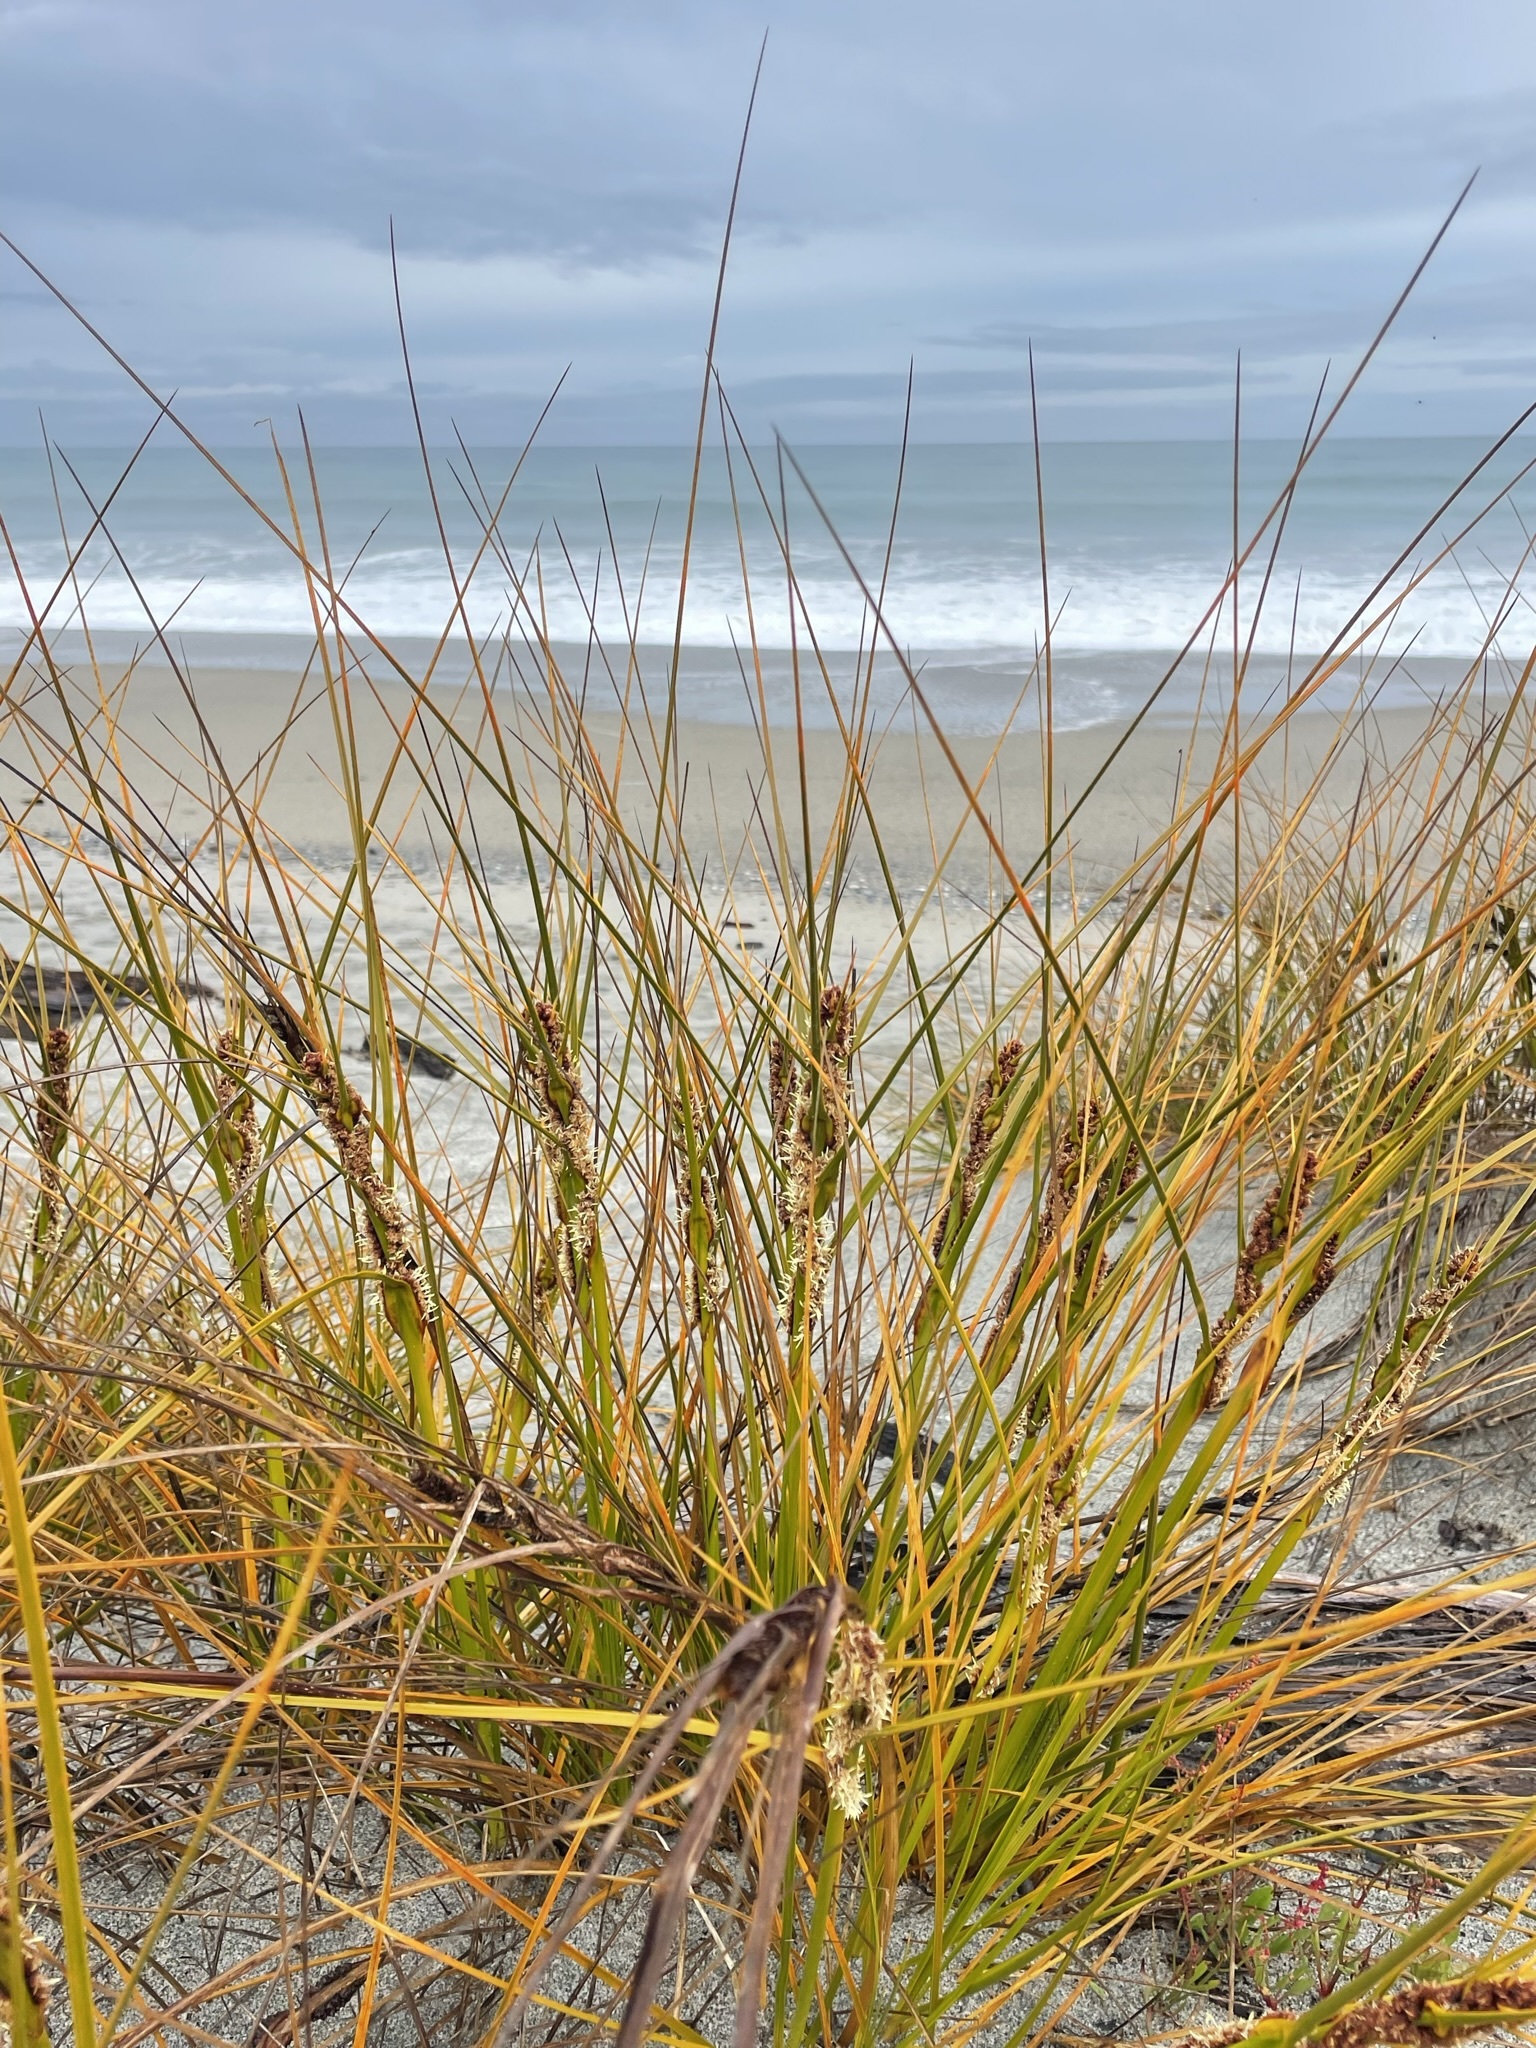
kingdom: Plantae
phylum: Tracheophyta
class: Liliopsida
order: Poales
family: Cyperaceae
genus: Ficinia
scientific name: Ficinia spiralis
